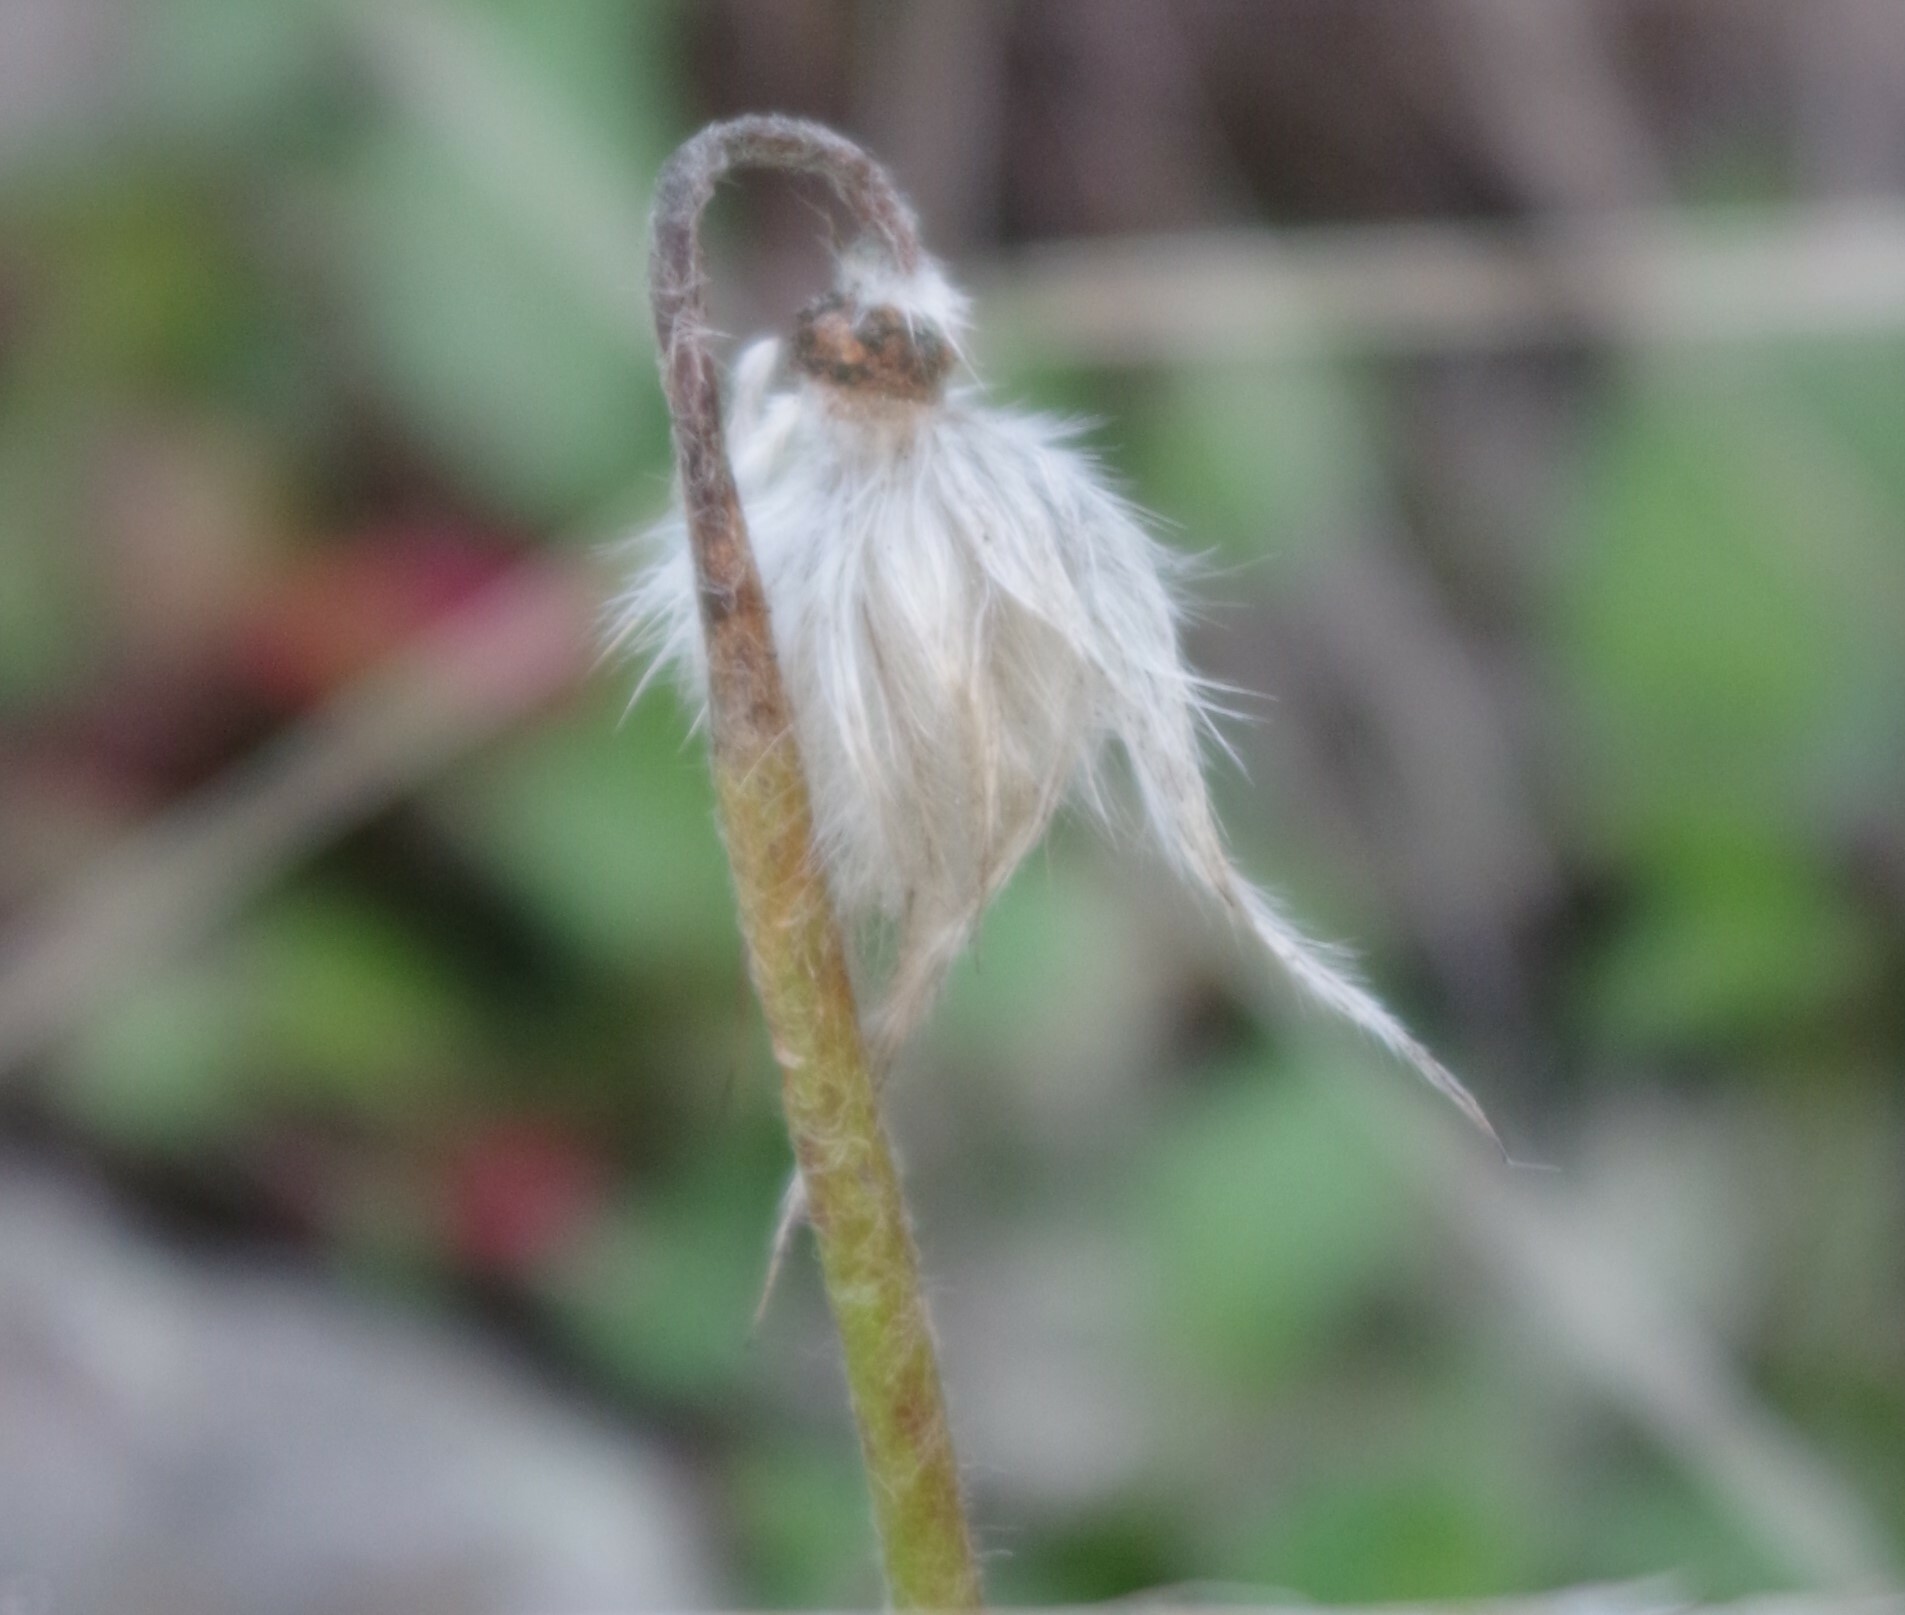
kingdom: Plantae
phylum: Tracheophyta
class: Magnoliopsida
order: Ranunculales
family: Ranunculaceae
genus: Pulsatilla
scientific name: Pulsatilla vulgaris
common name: Pasqueflower
